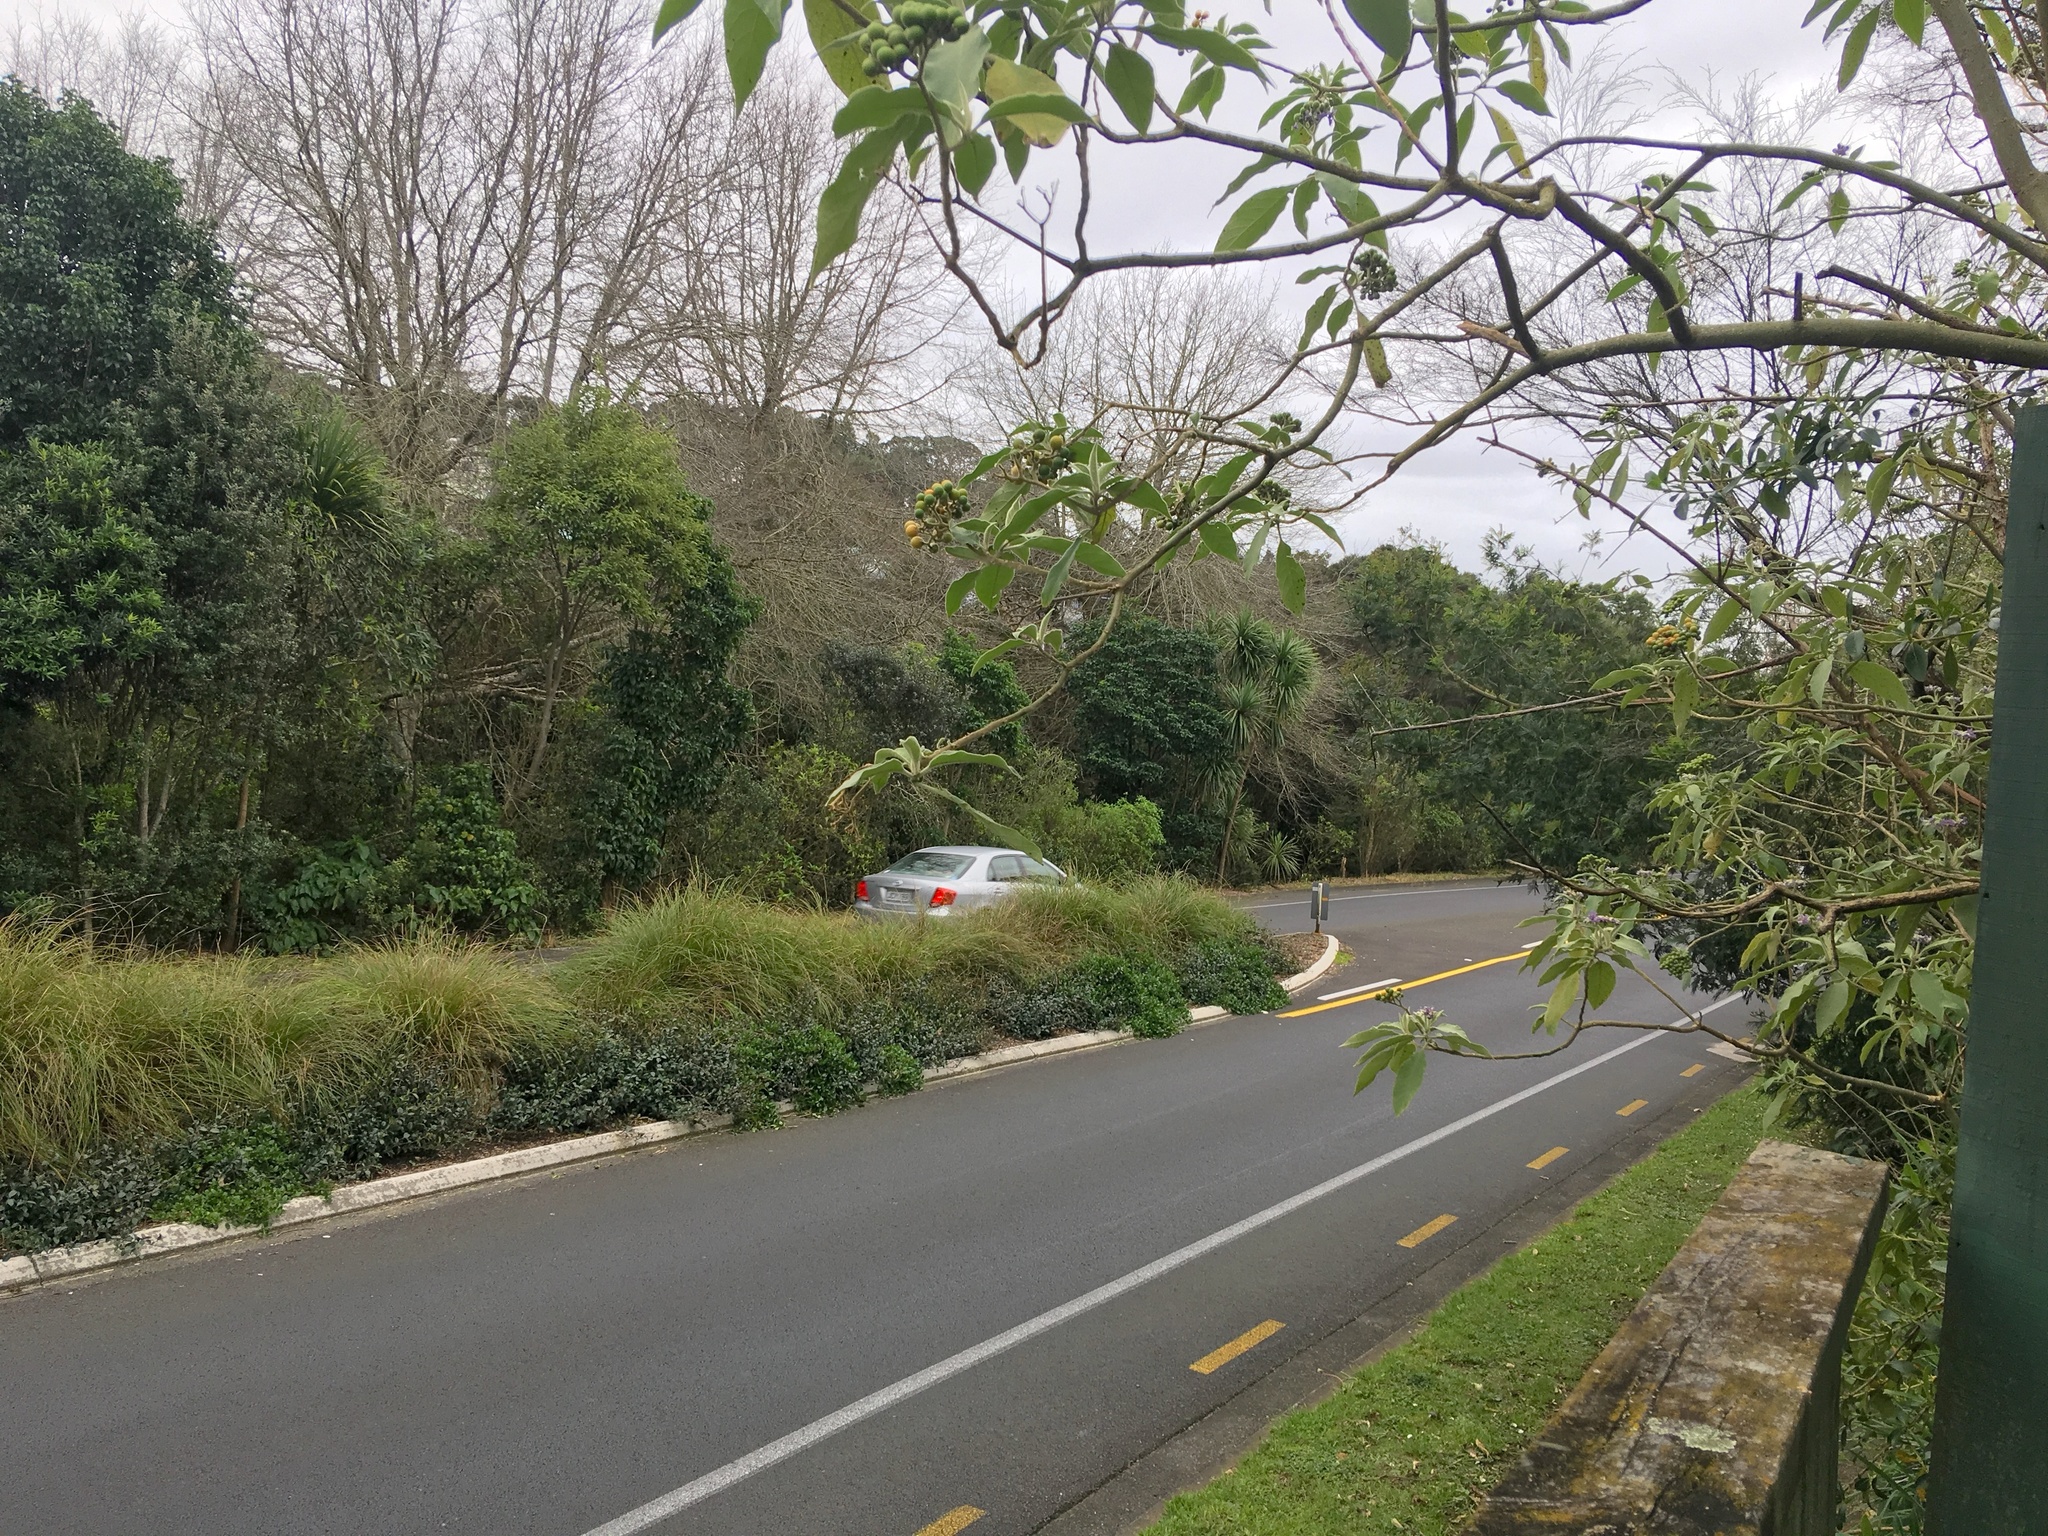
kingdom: Plantae
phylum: Tracheophyta
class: Magnoliopsida
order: Solanales
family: Solanaceae
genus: Solanum
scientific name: Solanum mauritianum
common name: Earleaf nightshade
